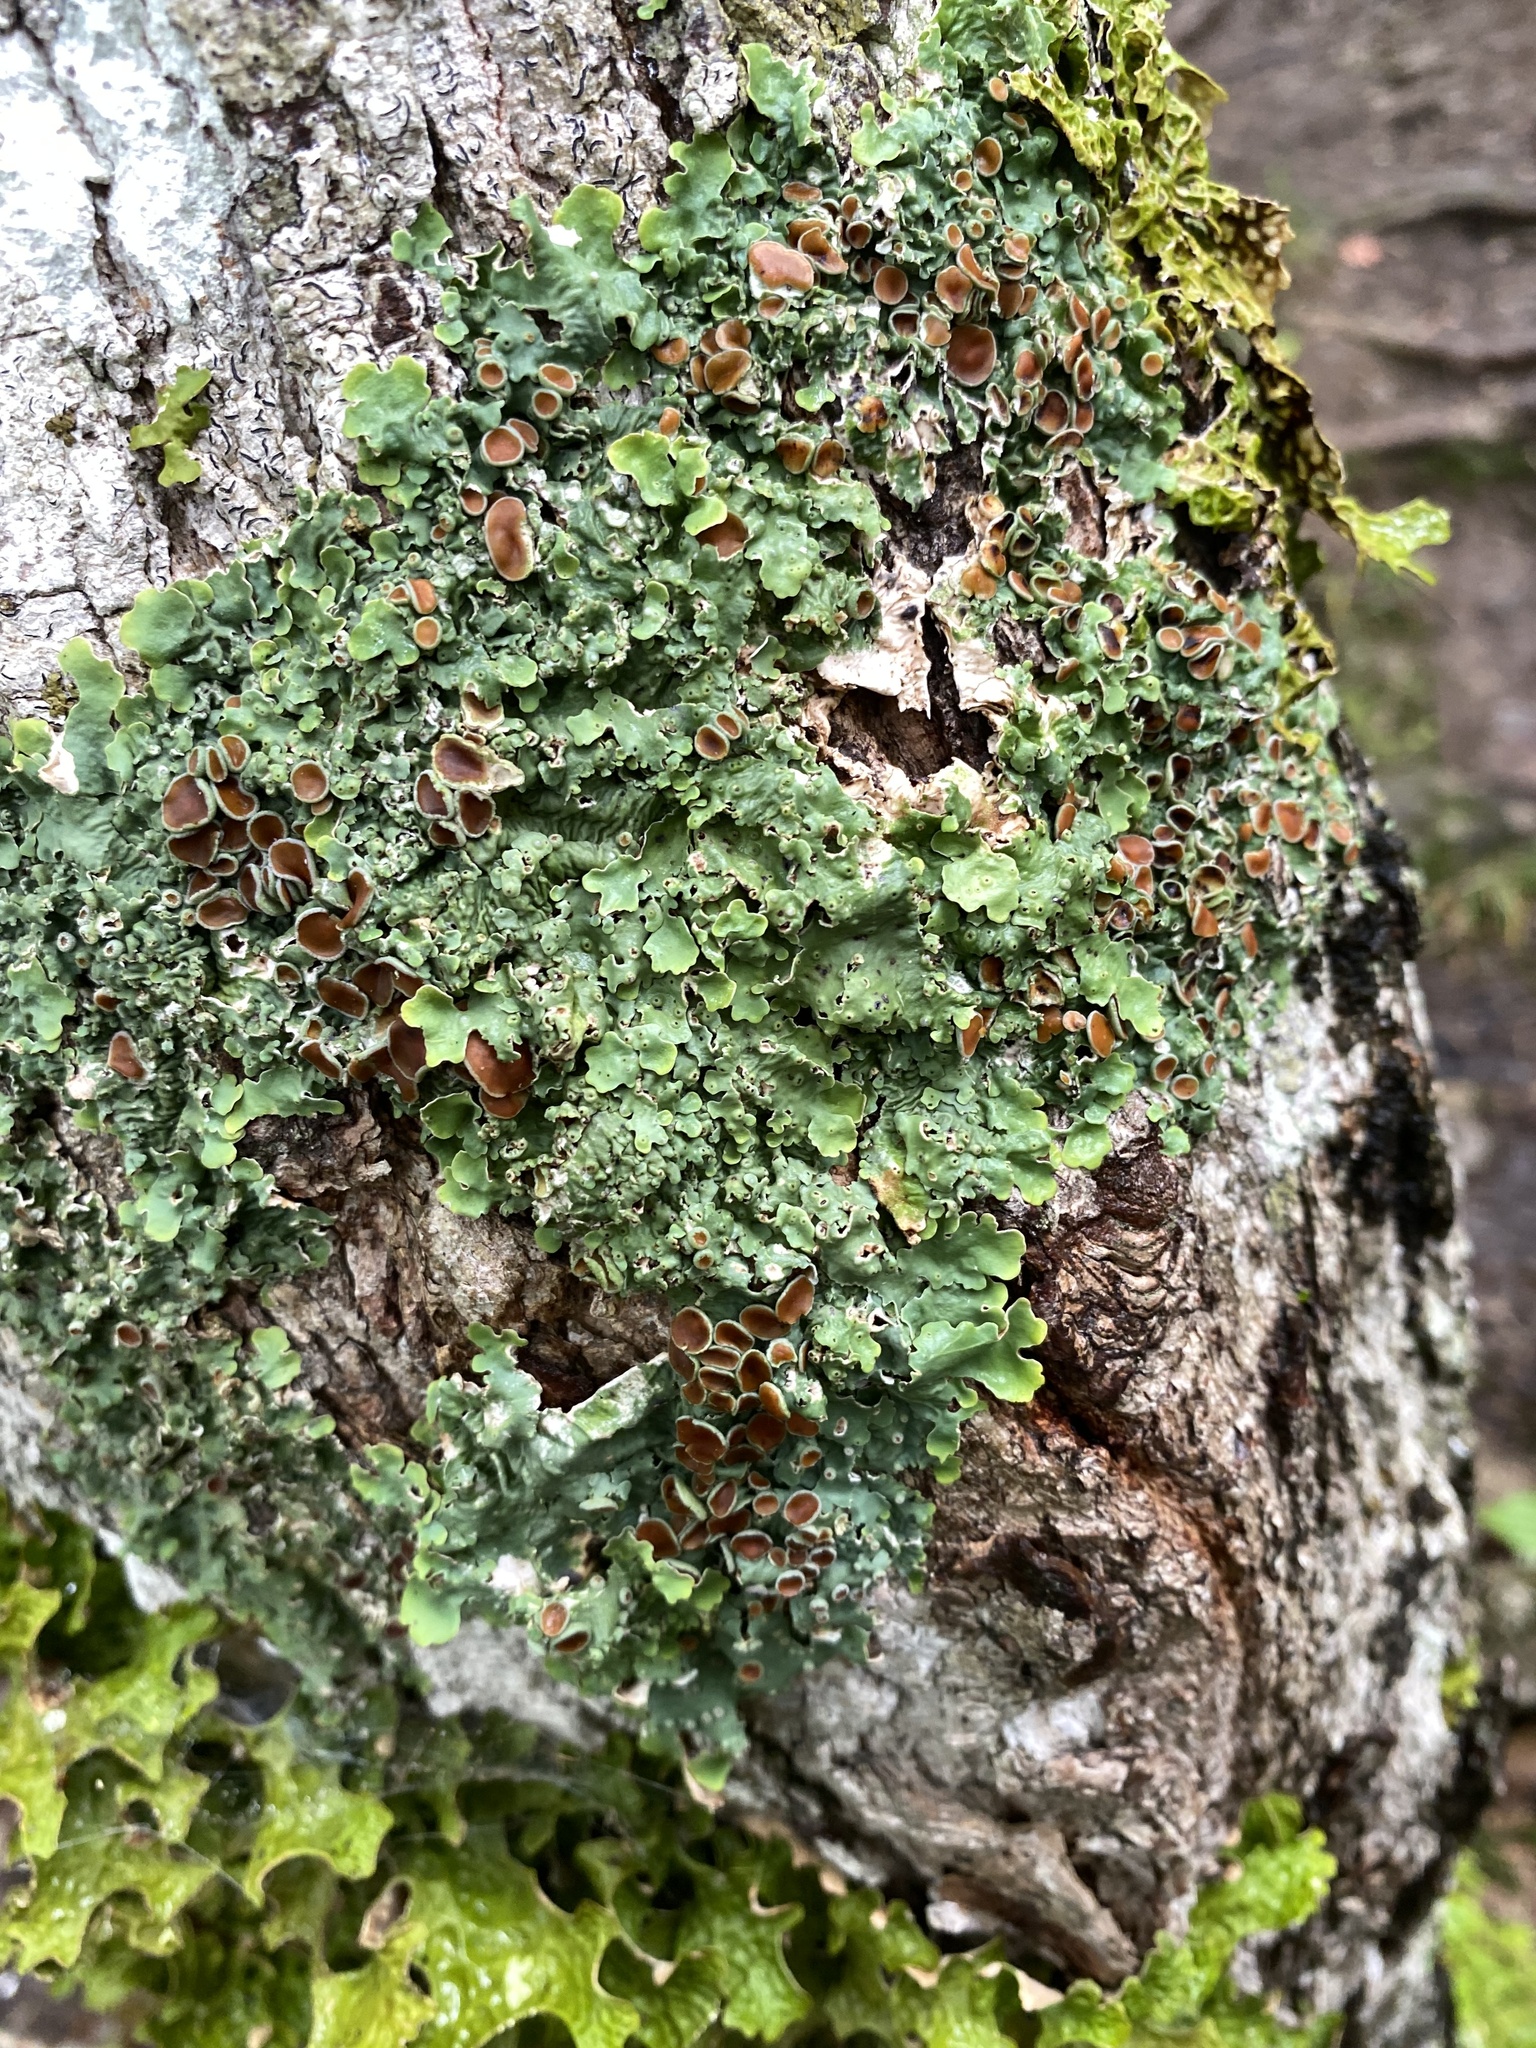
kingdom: Fungi
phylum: Ascomycota
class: Lecanoromycetes
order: Peltigerales
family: Lobariaceae
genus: Ricasolia
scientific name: Ricasolia quercizans
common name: Smooth lungwort
